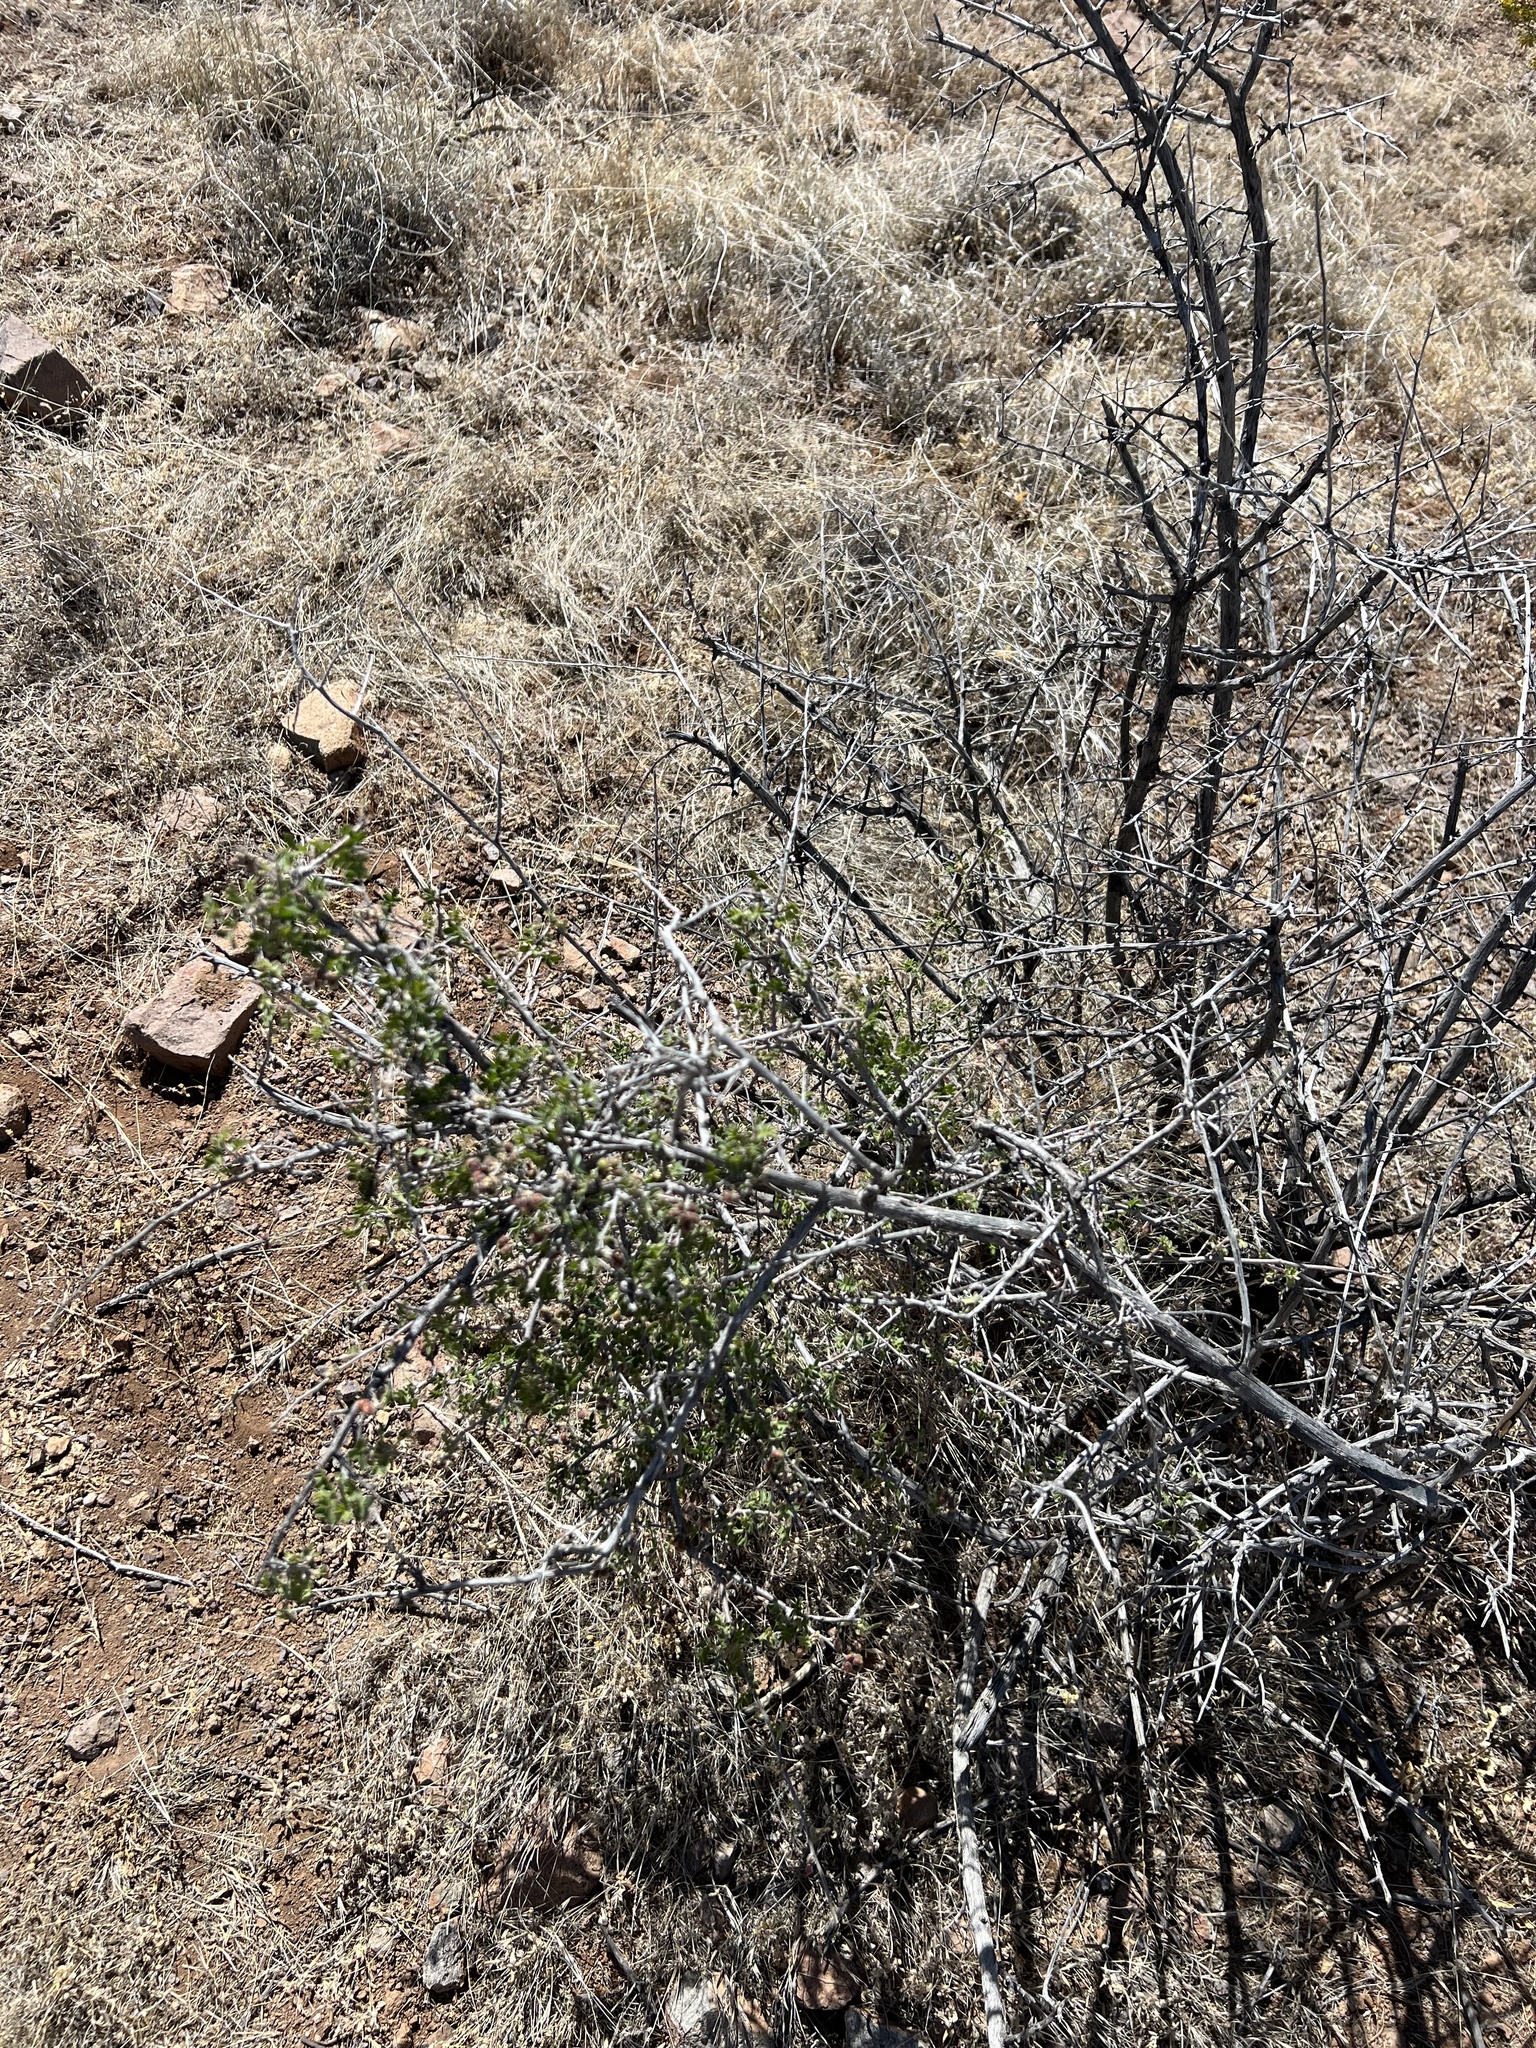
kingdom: Plantae
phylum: Tracheophyta
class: Magnoliopsida
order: Sapindales
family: Anacardiaceae
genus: Rhus
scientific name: Rhus microphylla
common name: Desert sumac
